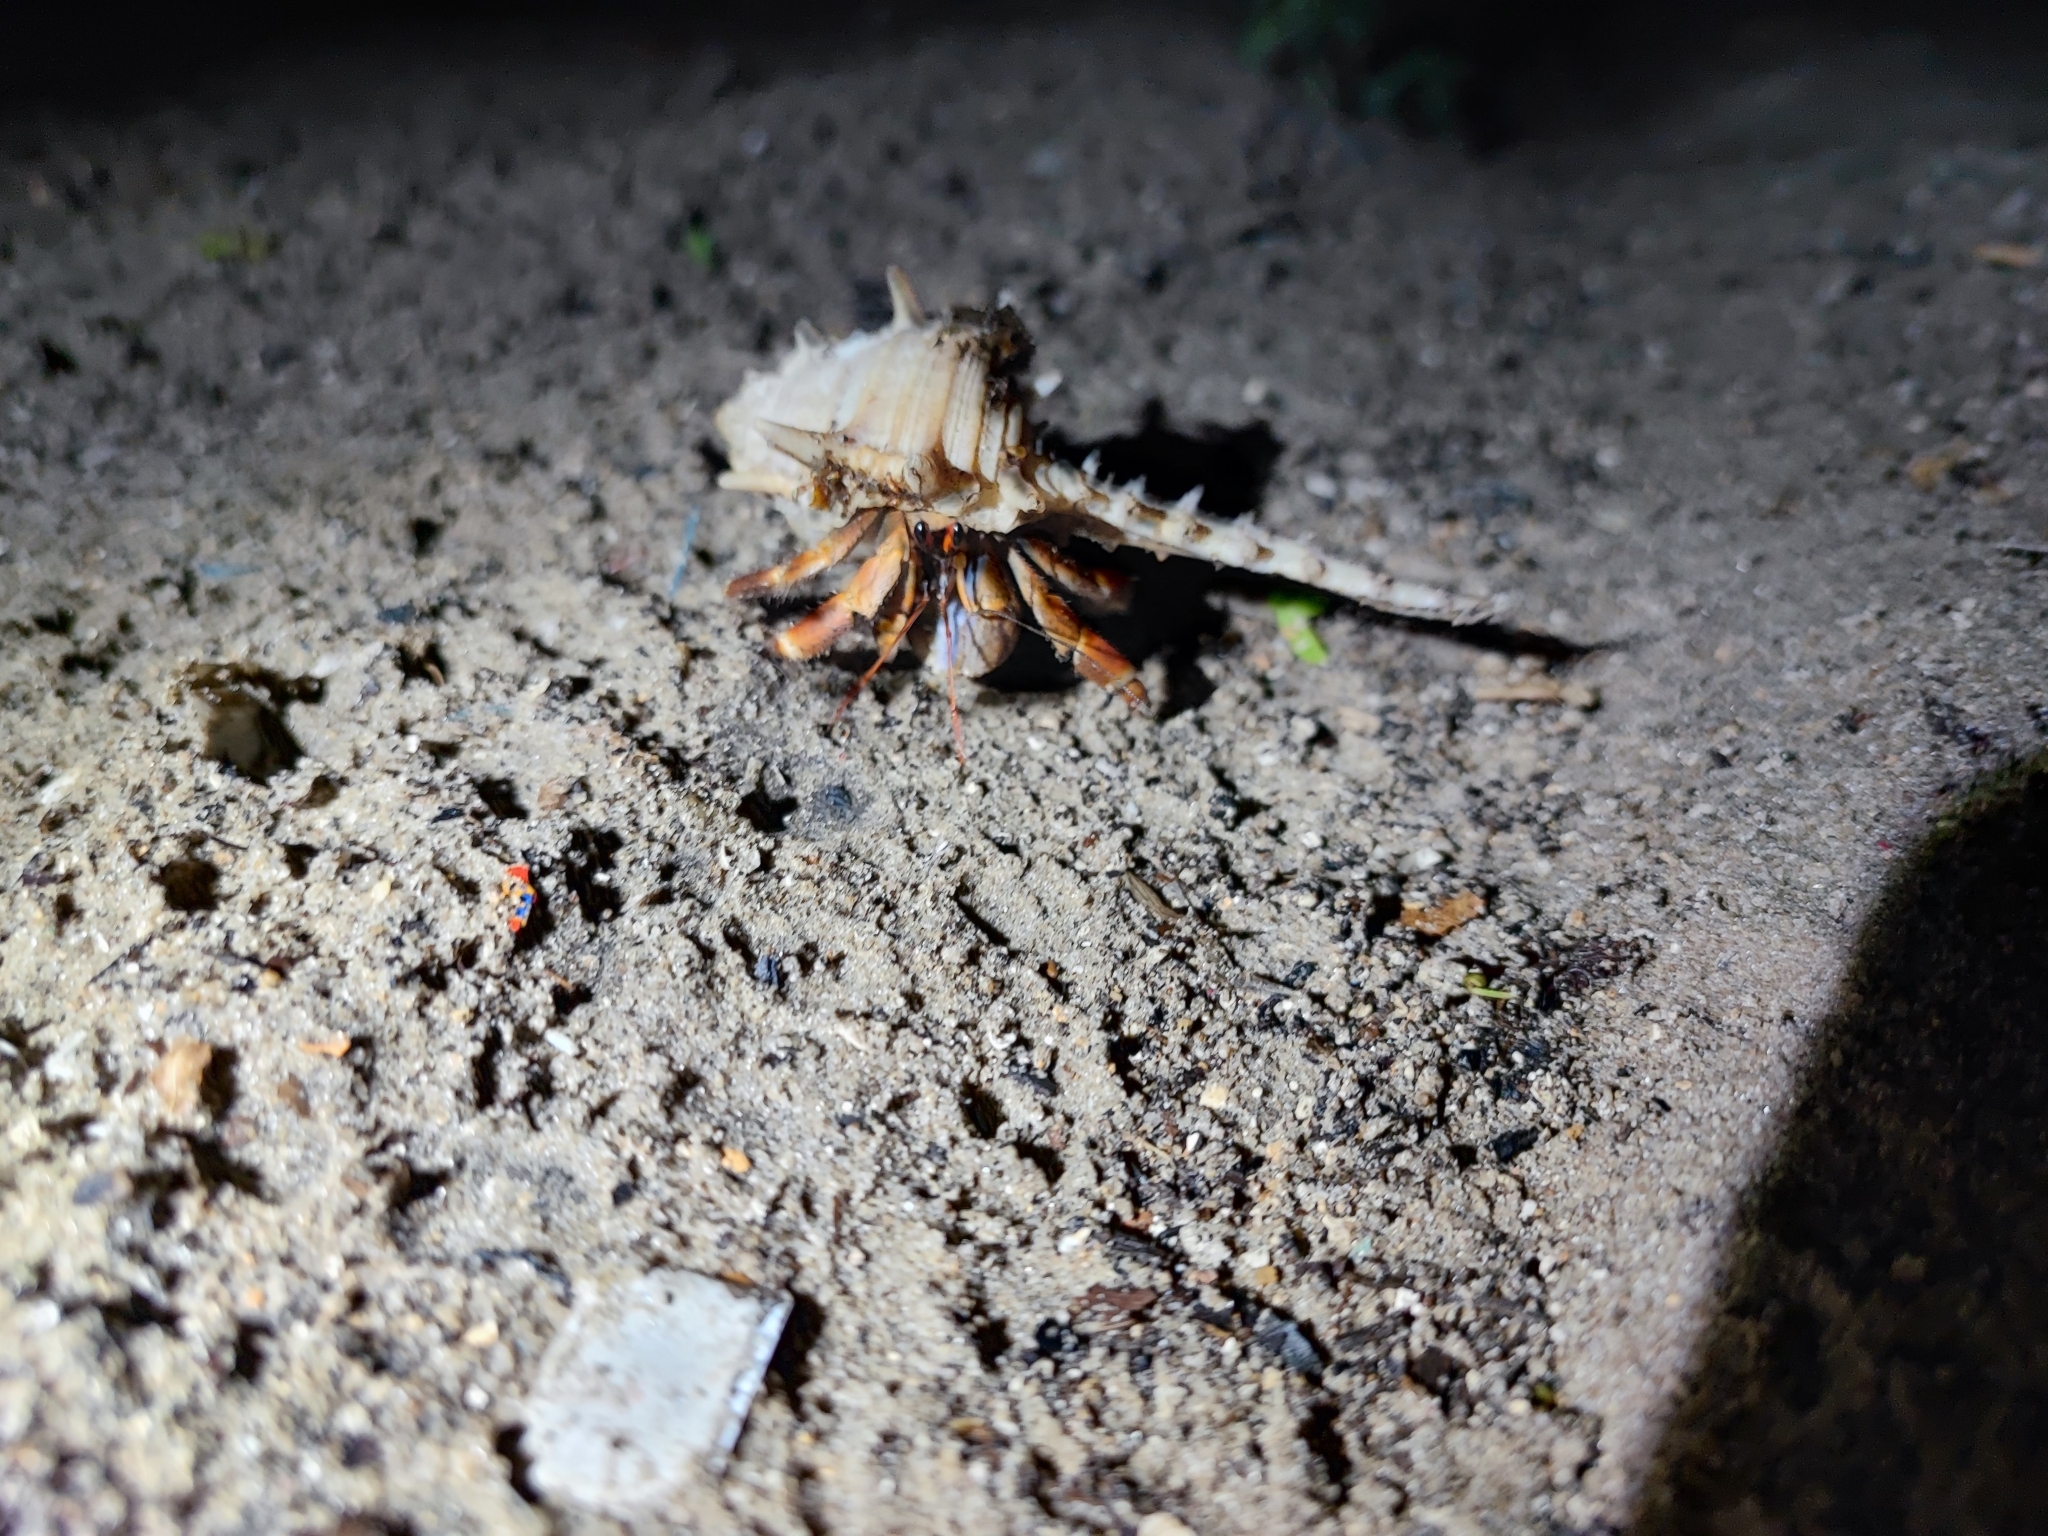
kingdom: Animalia
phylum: Arthropoda
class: Malacostraca
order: Decapoda
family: Coenobitidae
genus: Coenobita
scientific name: Coenobita violascens
